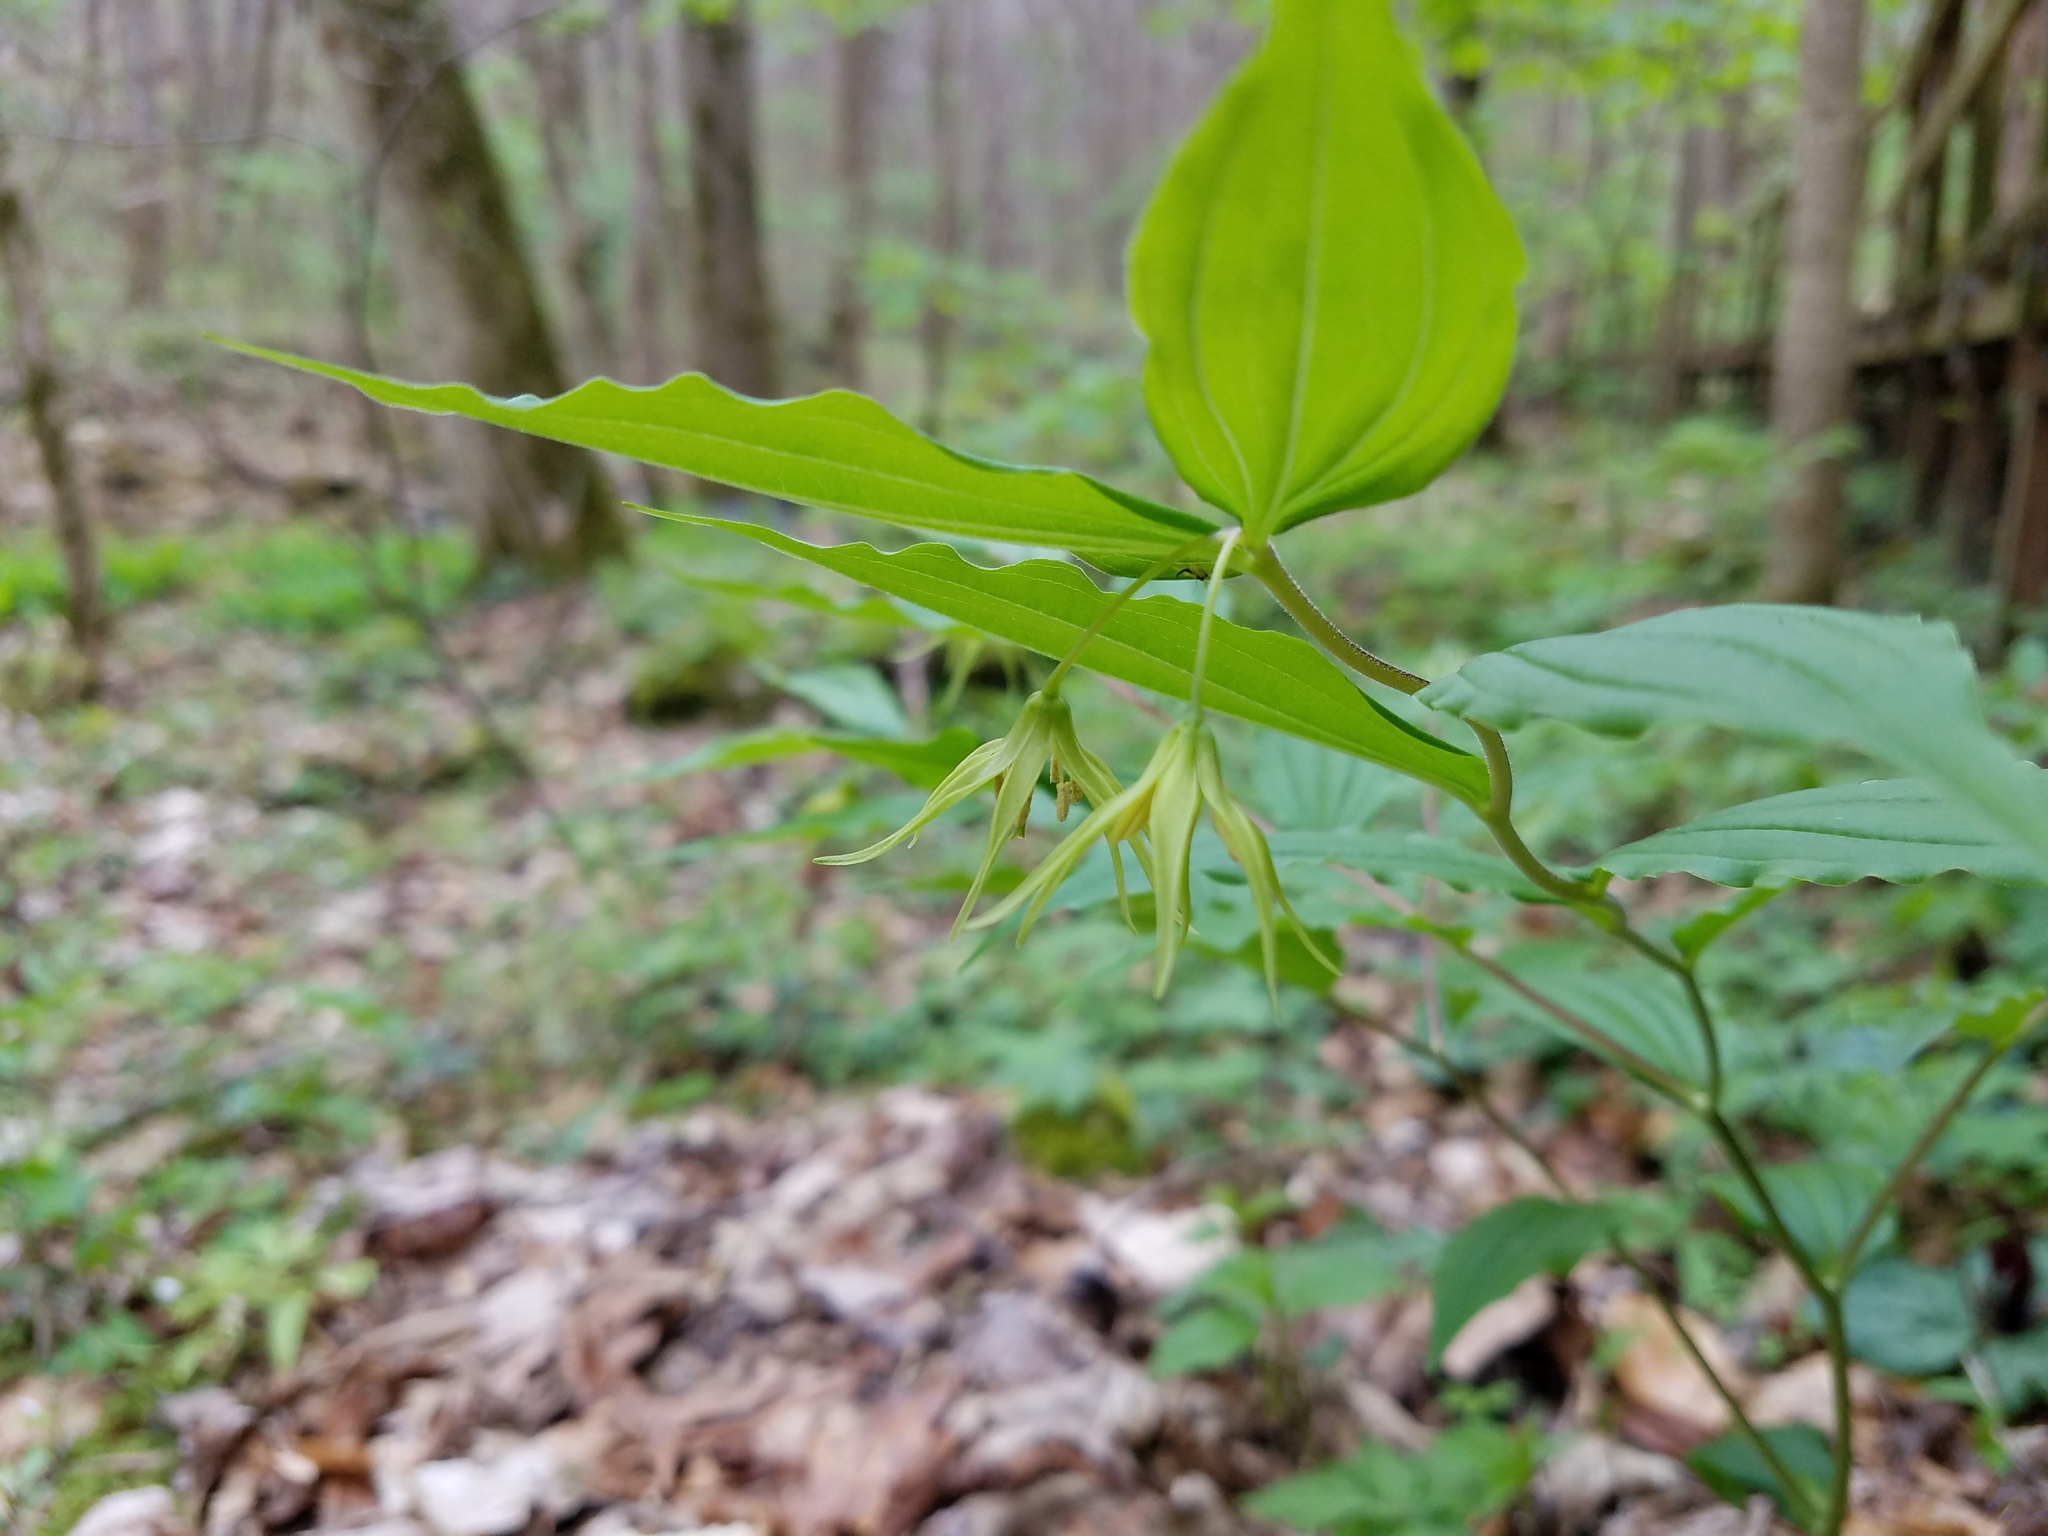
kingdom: Plantae
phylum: Tracheophyta
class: Liliopsida
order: Liliales
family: Liliaceae
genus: Prosartes
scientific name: Prosartes lanuginosa
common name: Hairy mandarin
